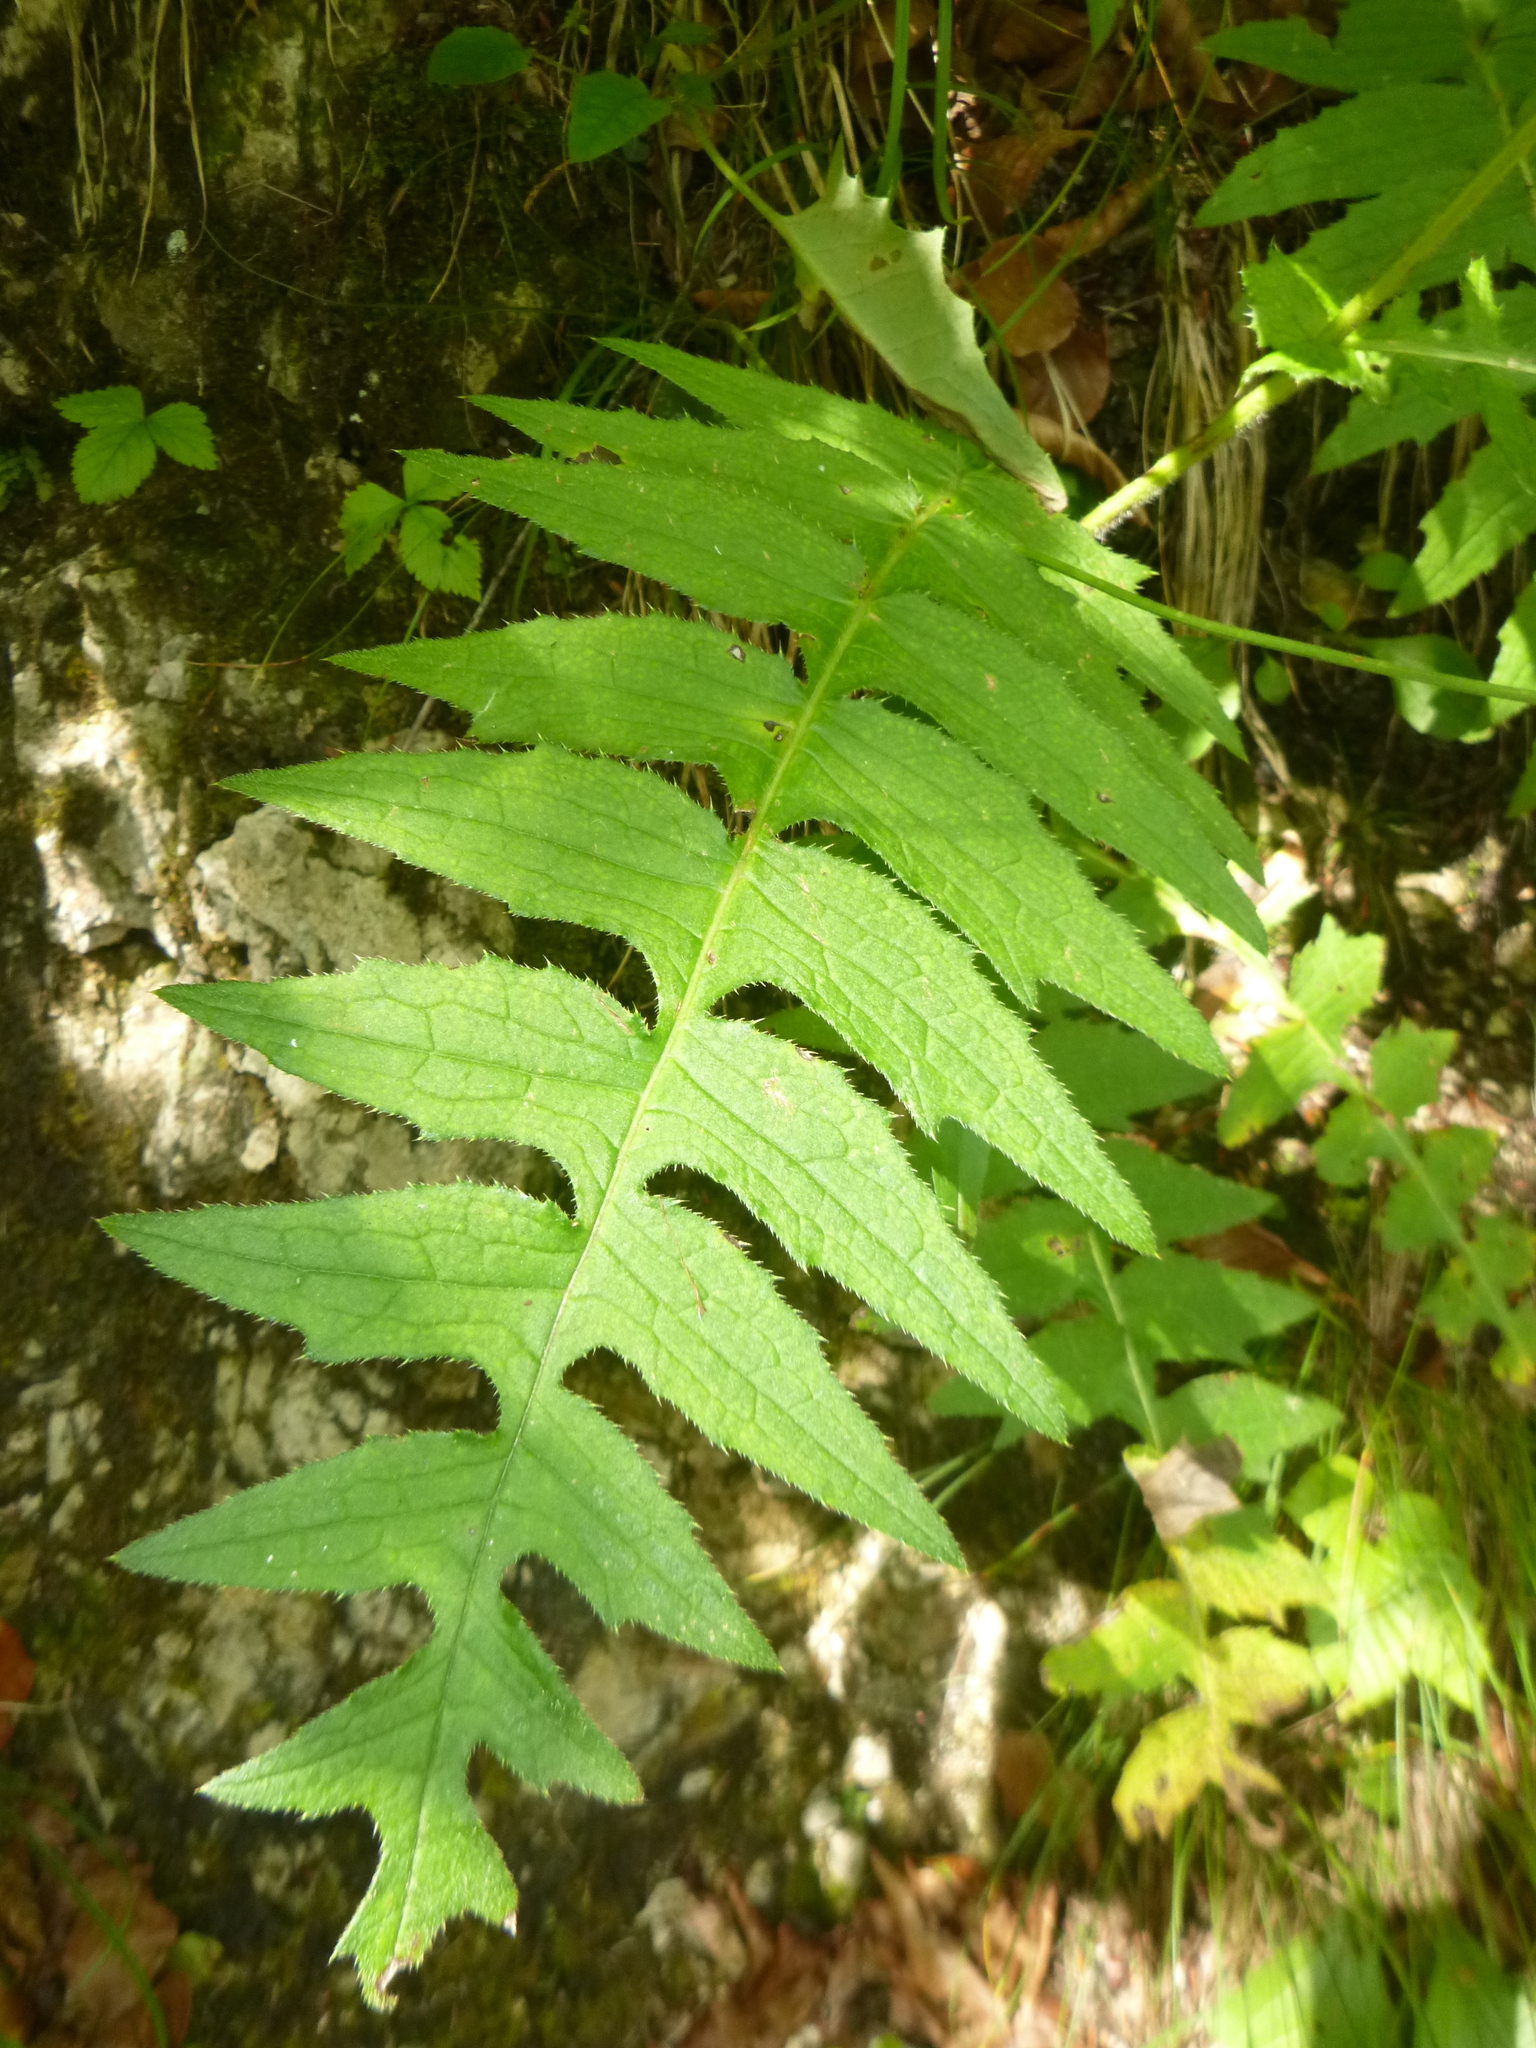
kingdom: Plantae
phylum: Tracheophyta
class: Magnoliopsida
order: Asterales
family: Asteraceae
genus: Cirsium
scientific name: Cirsium erisithales
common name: Yellow thistle
